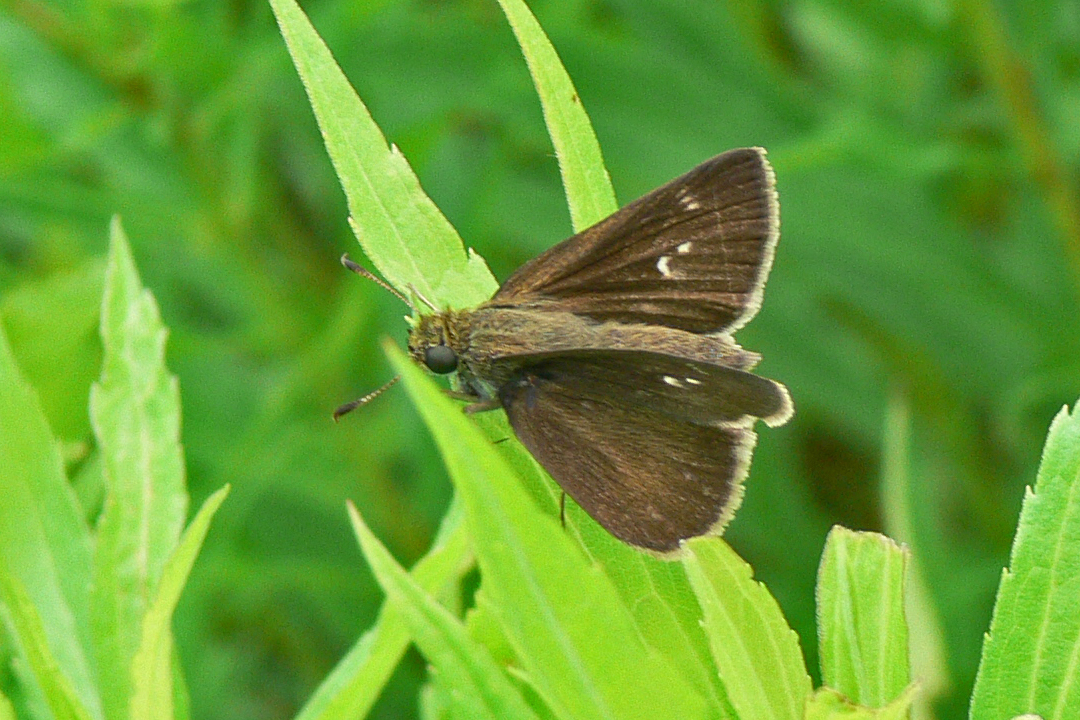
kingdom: Animalia
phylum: Arthropoda
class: Insecta
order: Lepidoptera
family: Hesperiidae
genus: Euphyes
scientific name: Euphyes vestris
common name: Dun skipper
